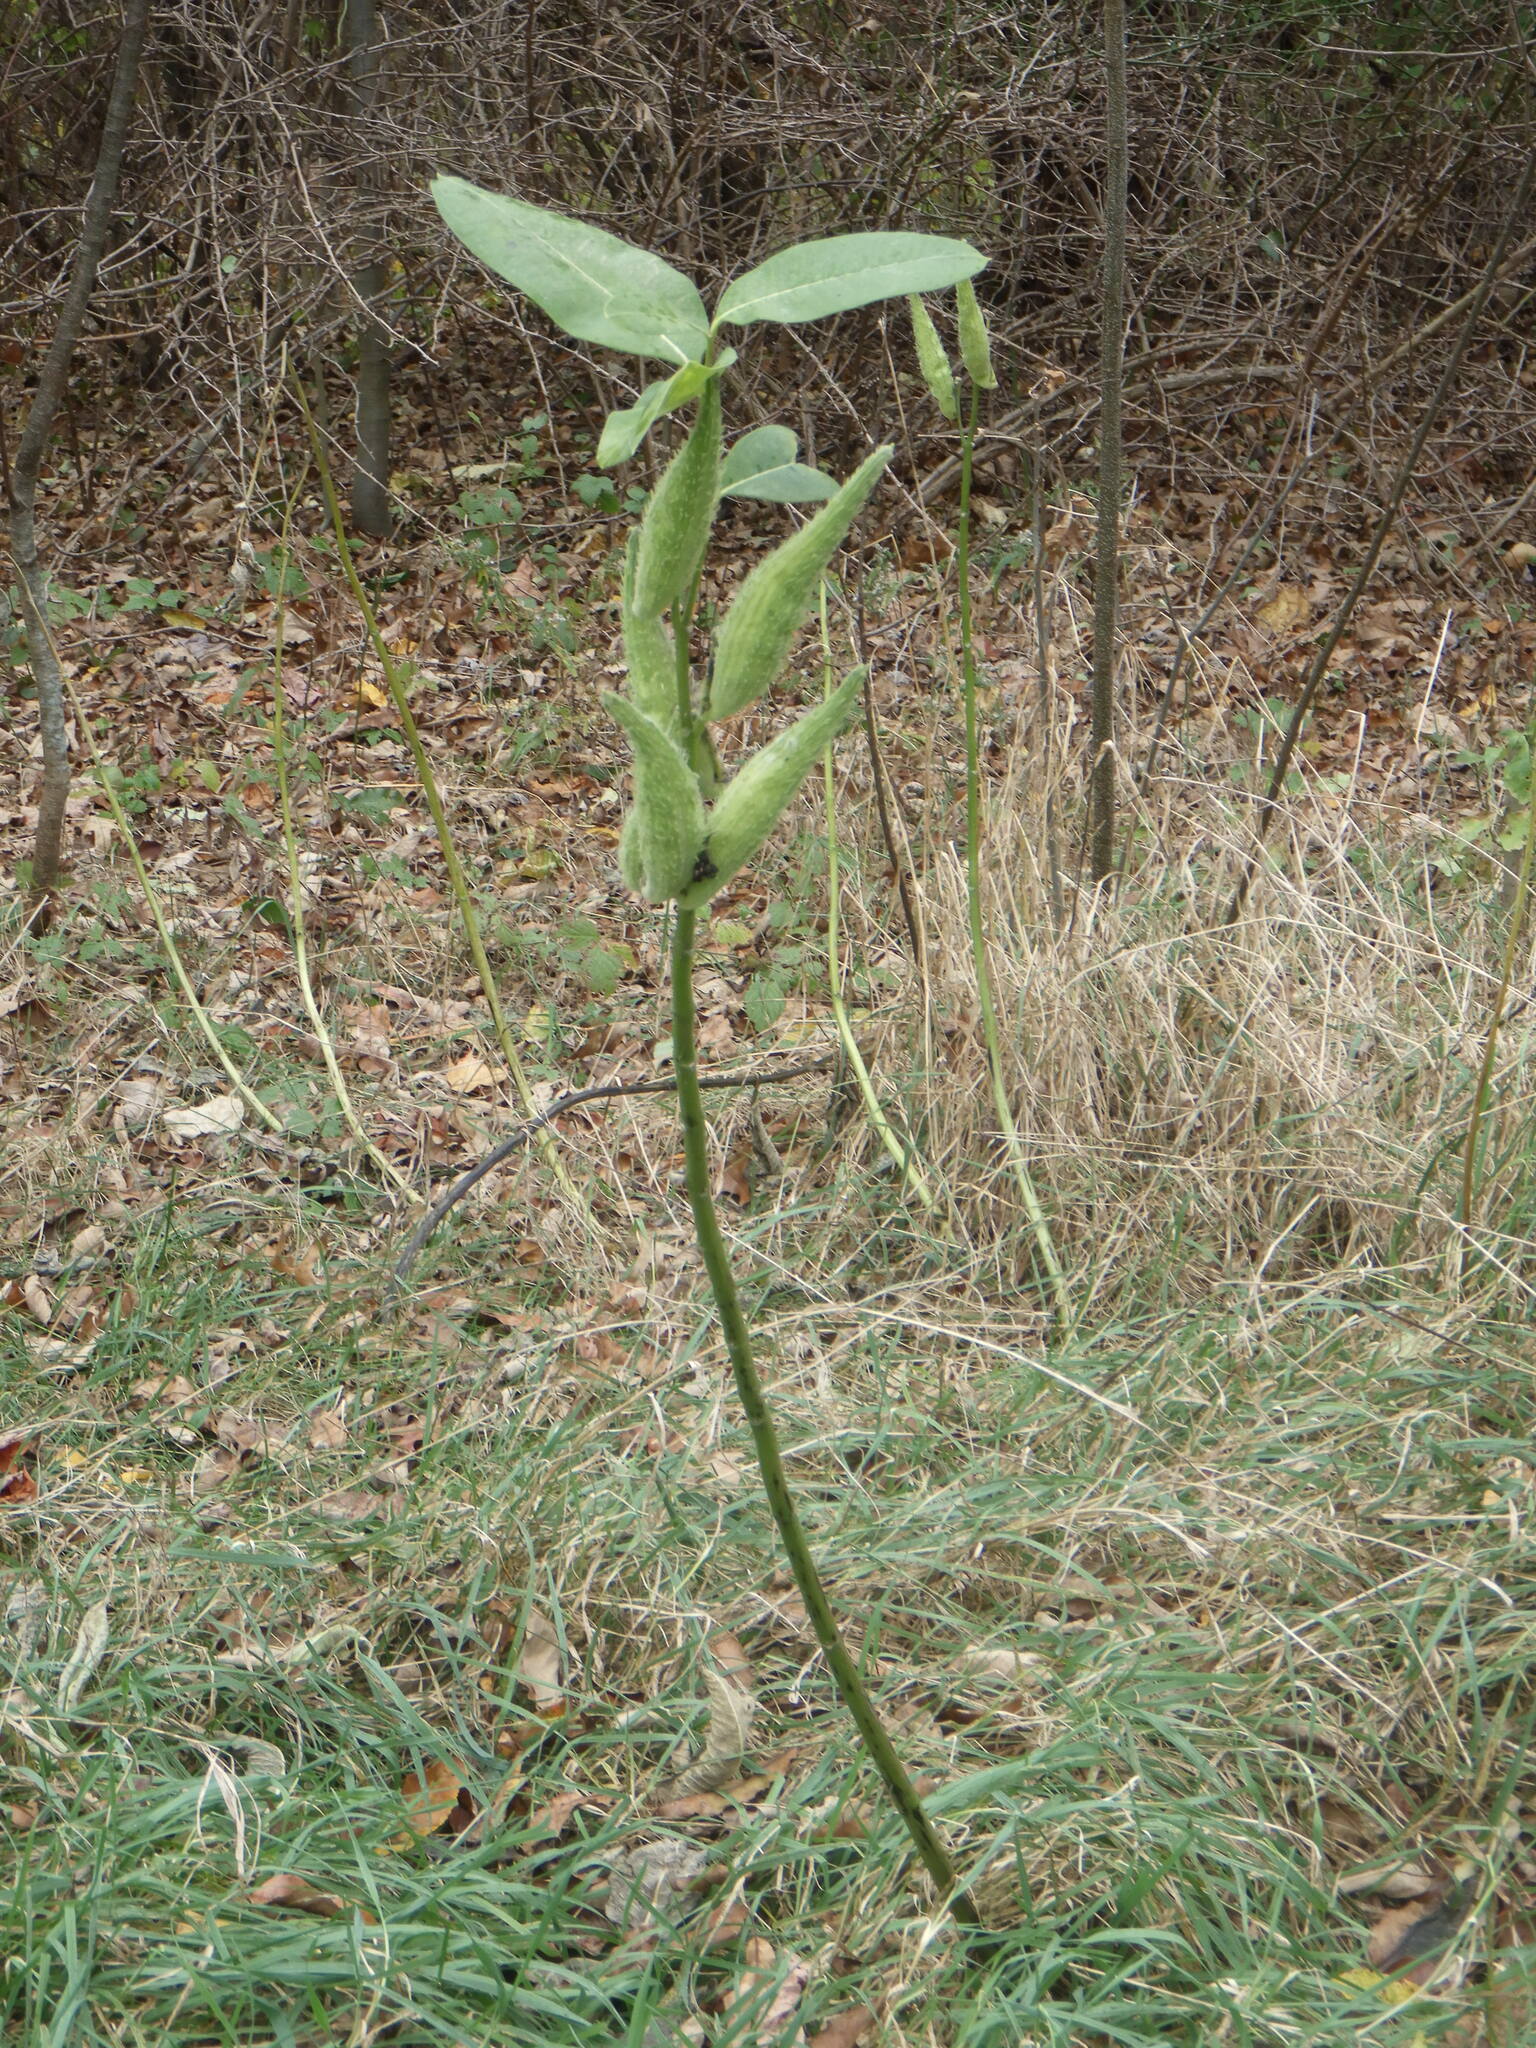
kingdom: Plantae
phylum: Tracheophyta
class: Magnoliopsida
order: Gentianales
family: Apocynaceae
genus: Asclepias
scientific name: Asclepias syriaca
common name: Common milkweed
